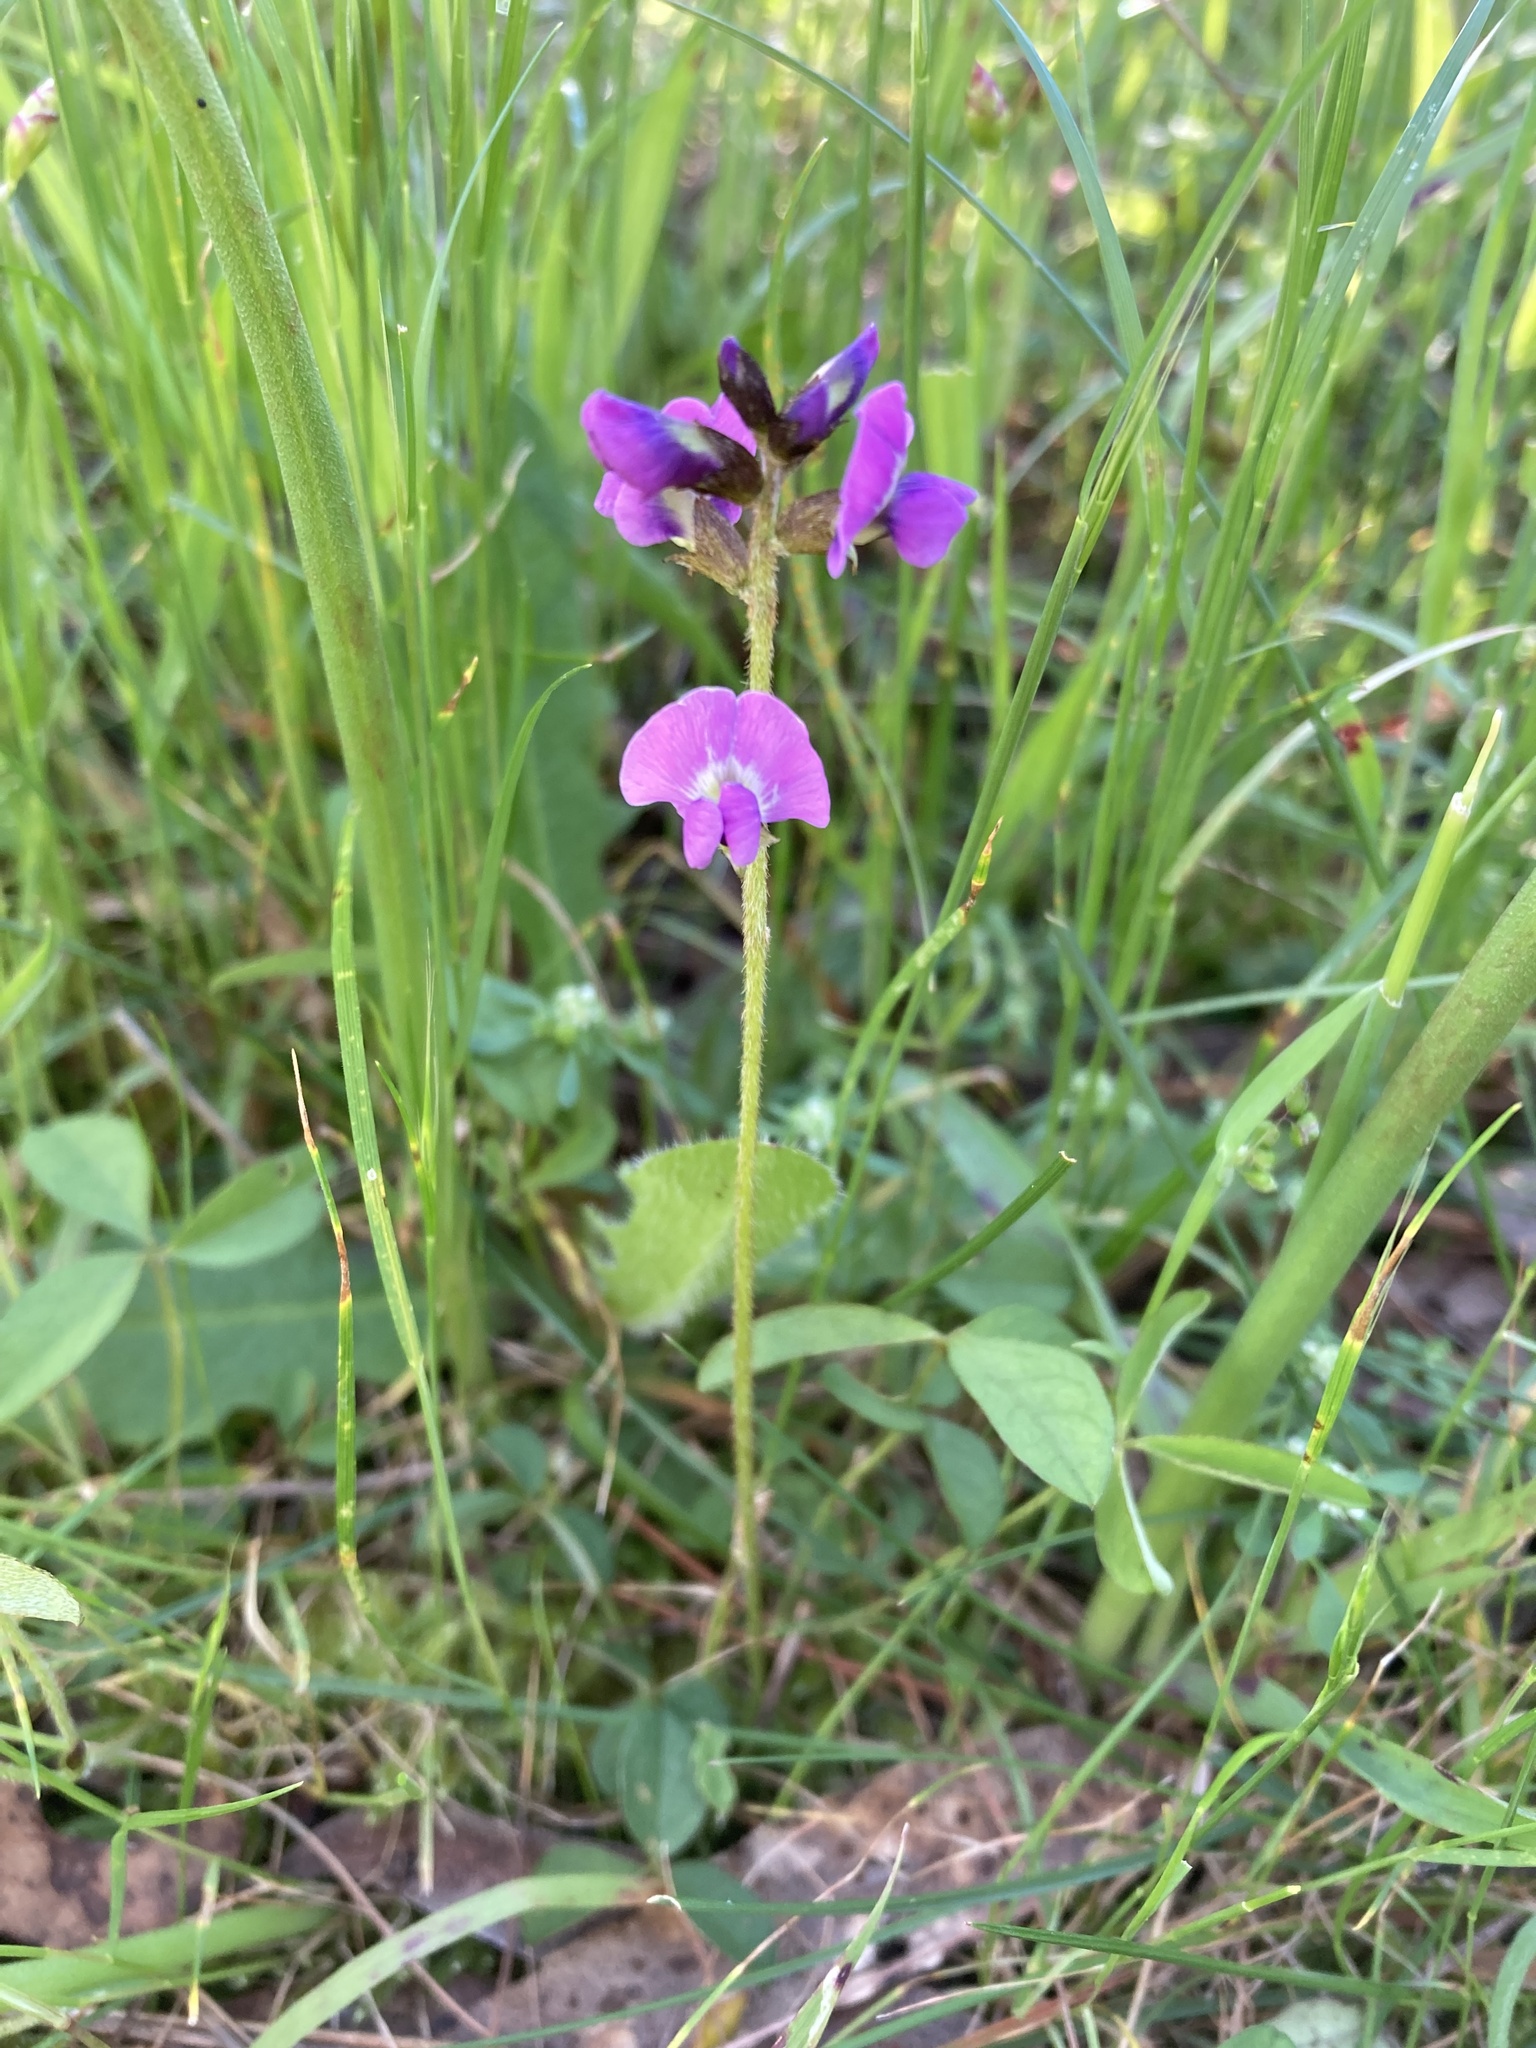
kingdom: Plantae
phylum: Tracheophyta
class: Magnoliopsida
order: Fabales
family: Fabaceae
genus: Glycine
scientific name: Glycine tabacina
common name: Pea glycine
